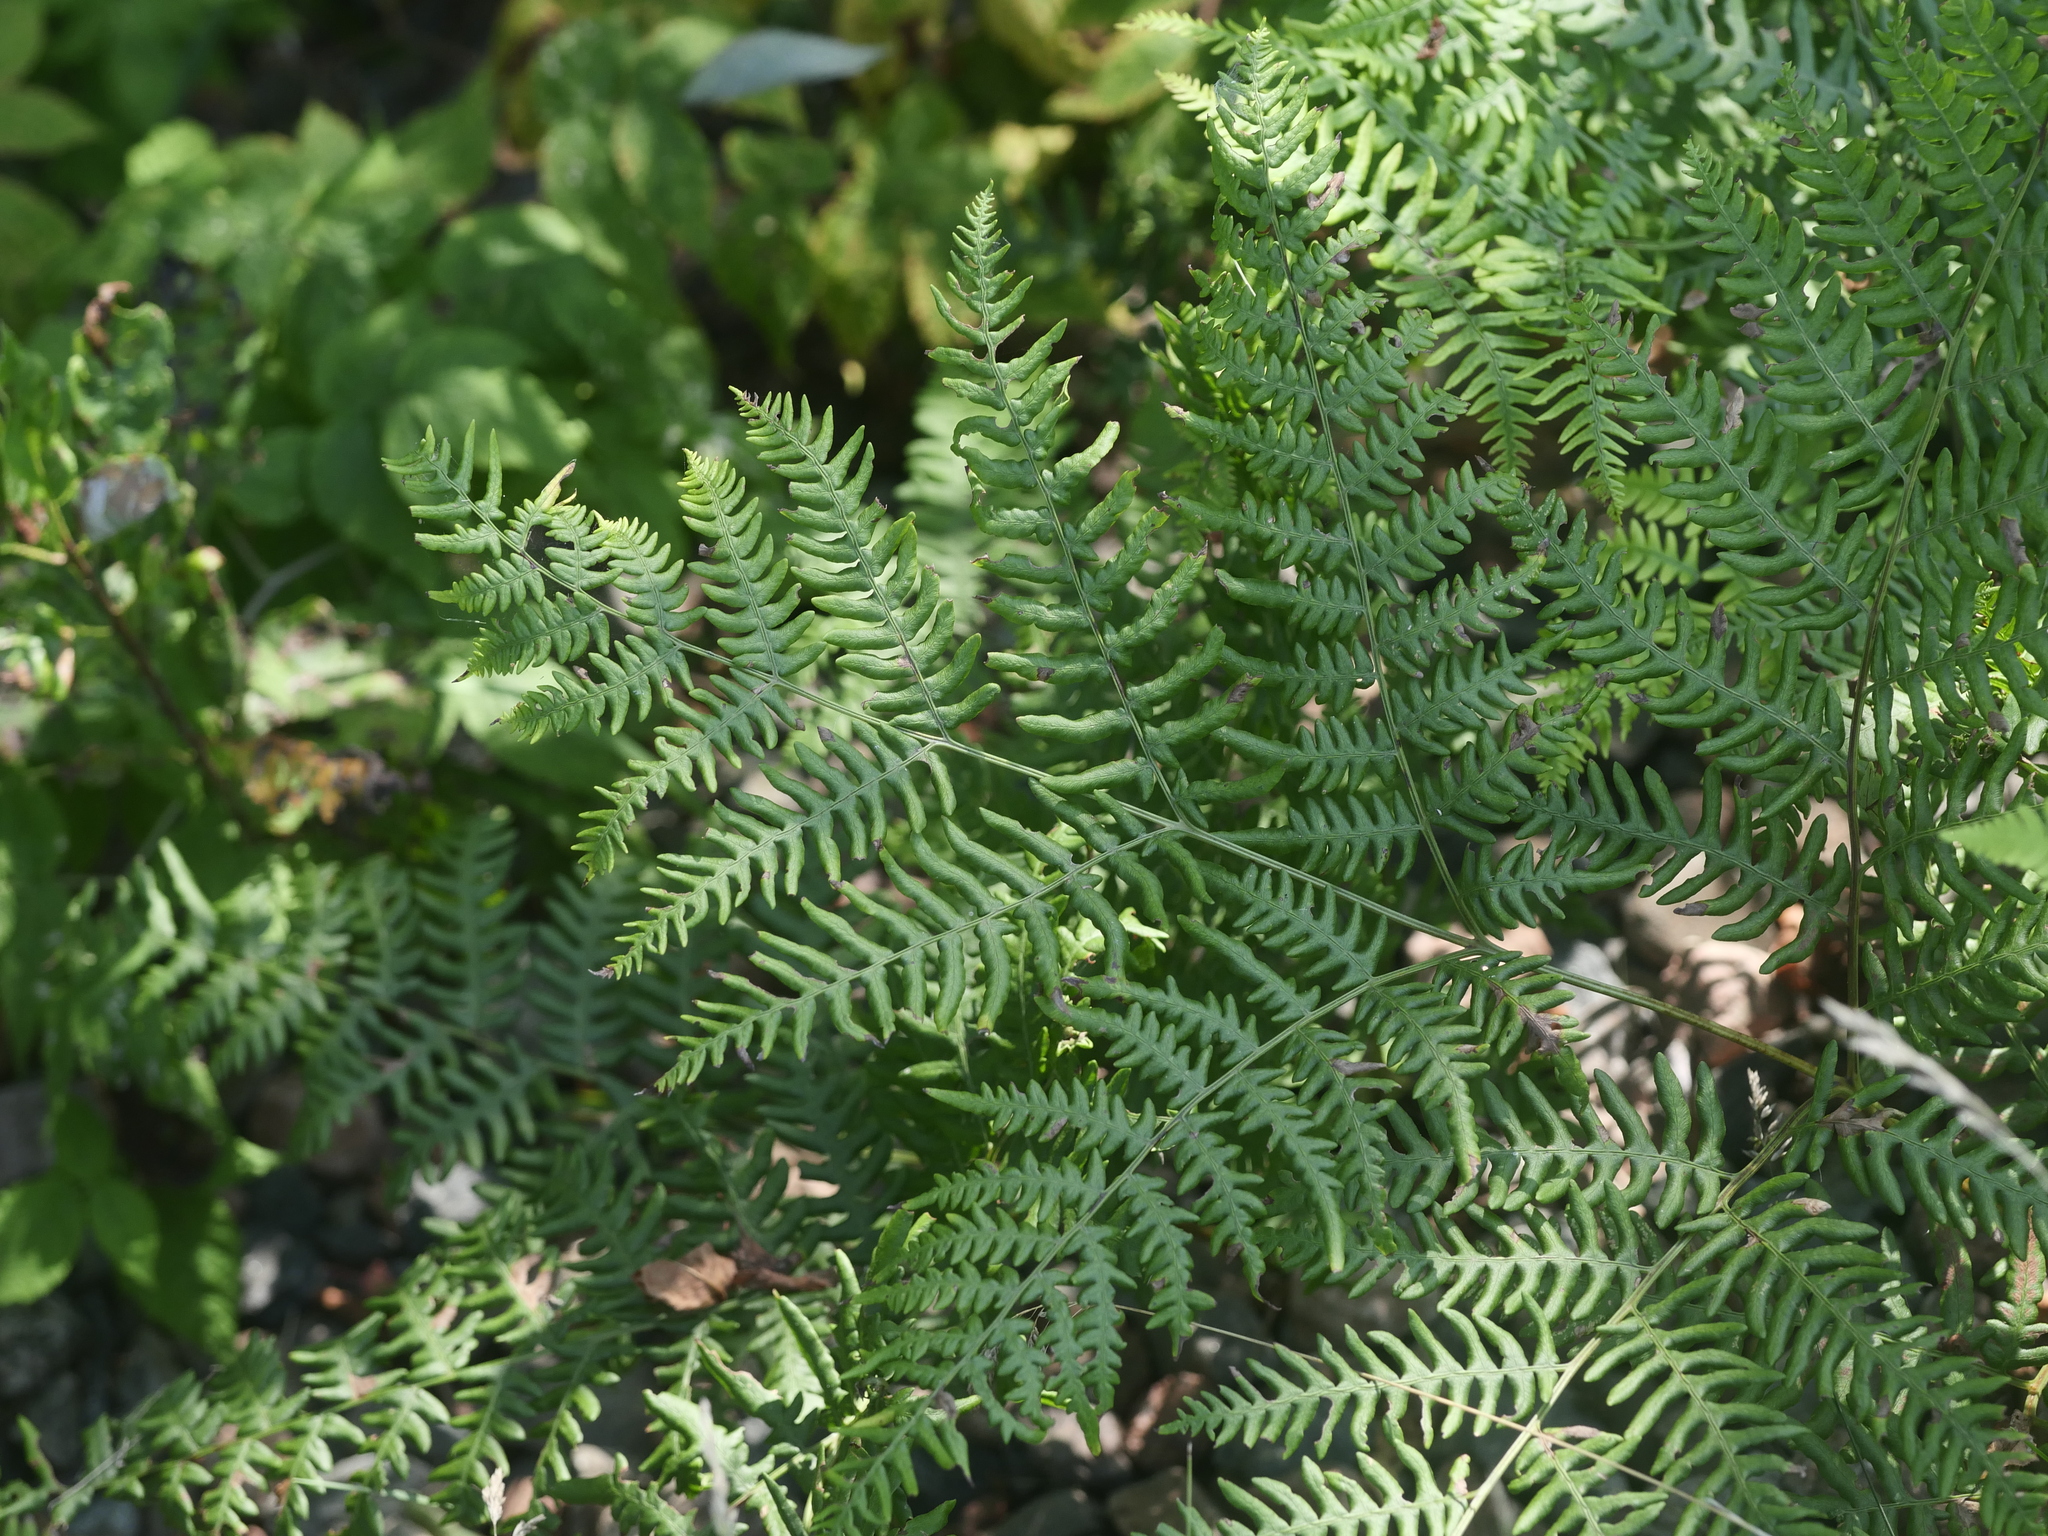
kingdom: Plantae
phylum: Tracheophyta
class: Polypodiopsida
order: Polypodiales
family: Dennstaedtiaceae
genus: Pteridium
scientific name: Pteridium aquilinum
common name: Bracken
